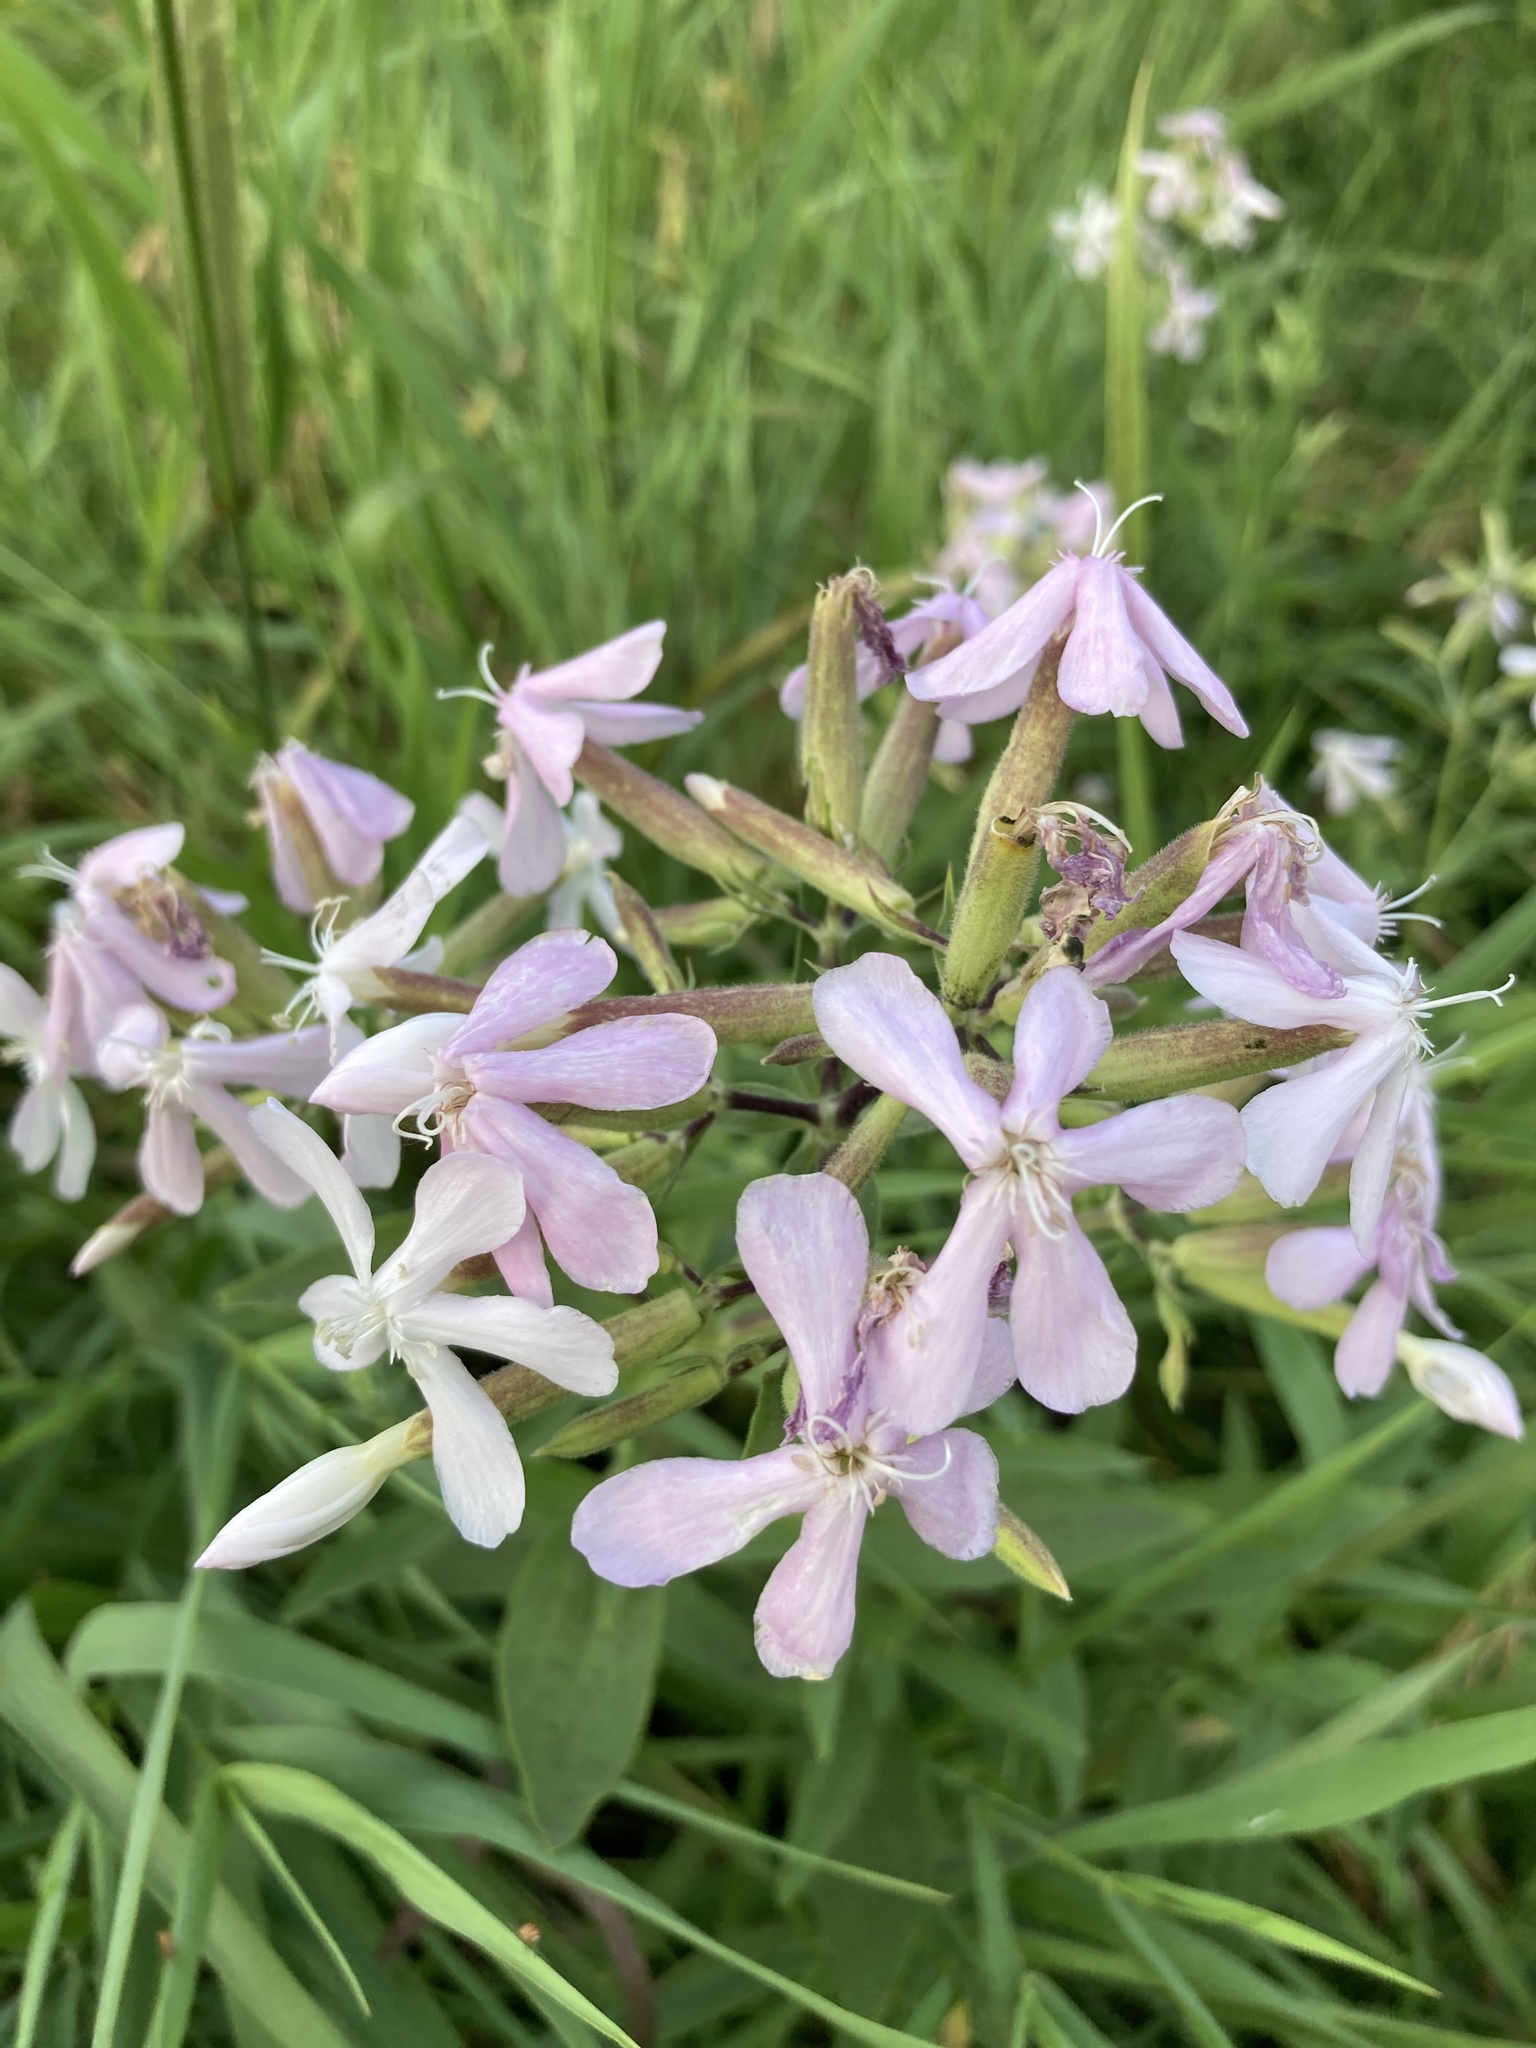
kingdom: Plantae
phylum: Tracheophyta
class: Magnoliopsida
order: Caryophyllales
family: Caryophyllaceae
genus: Saponaria
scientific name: Saponaria officinalis
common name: Soapwort
